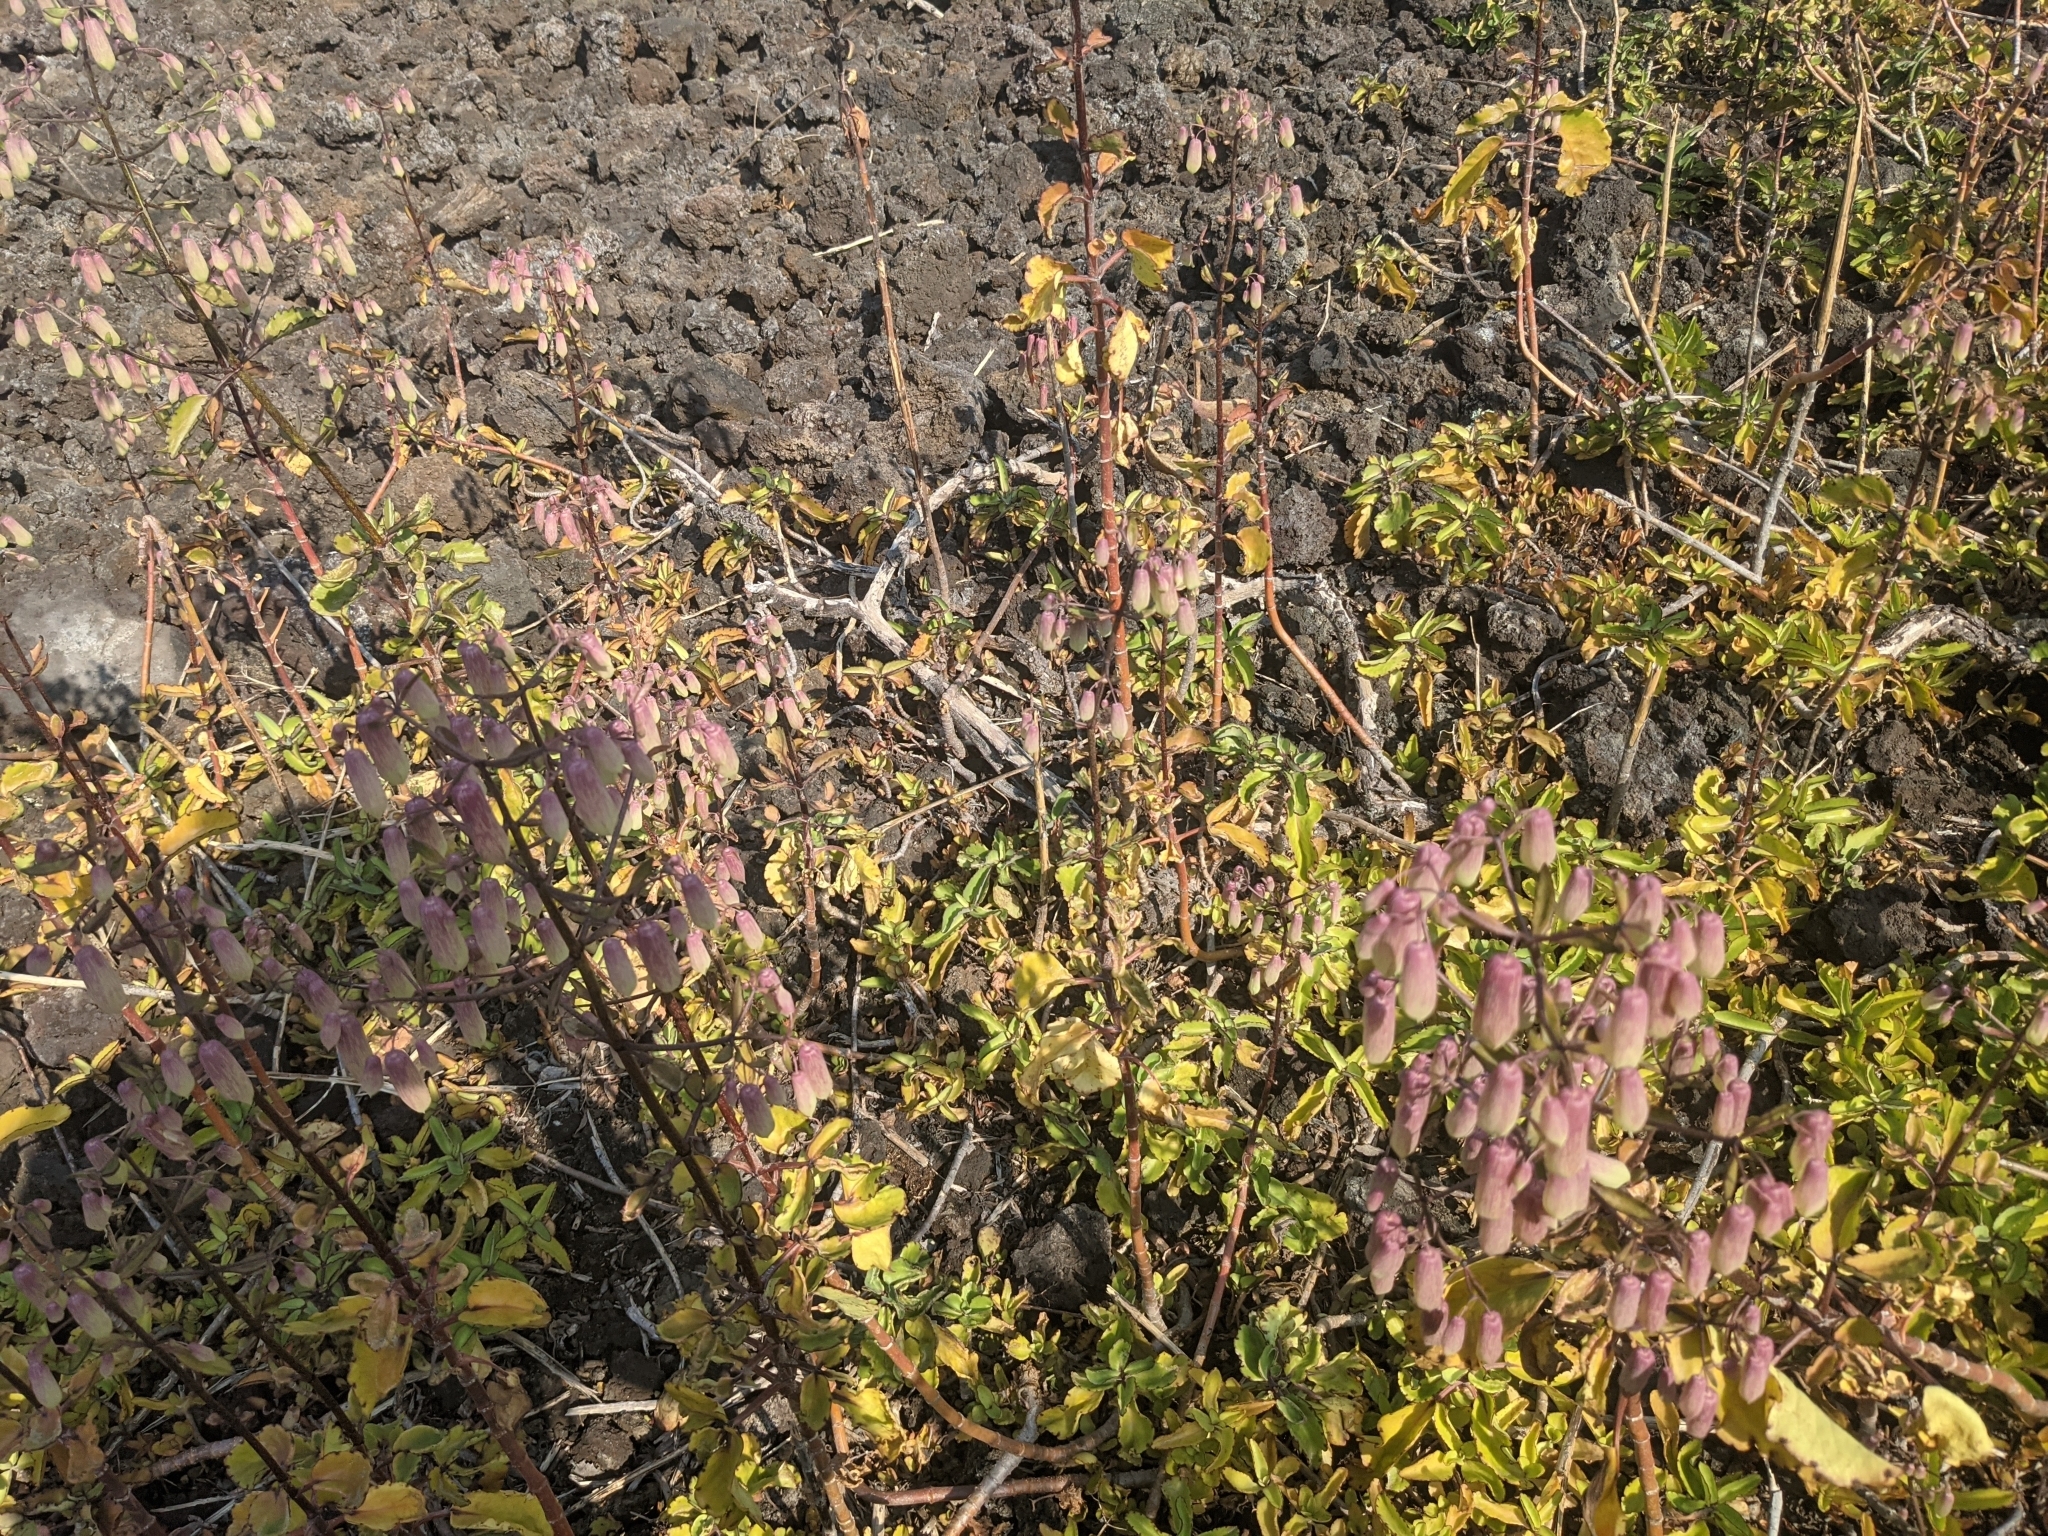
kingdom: Plantae
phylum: Tracheophyta
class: Magnoliopsida
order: Saxifragales
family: Crassulaceae
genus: Kalanchoe
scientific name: Kalanchoe pinnata
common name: Cathedral bells
